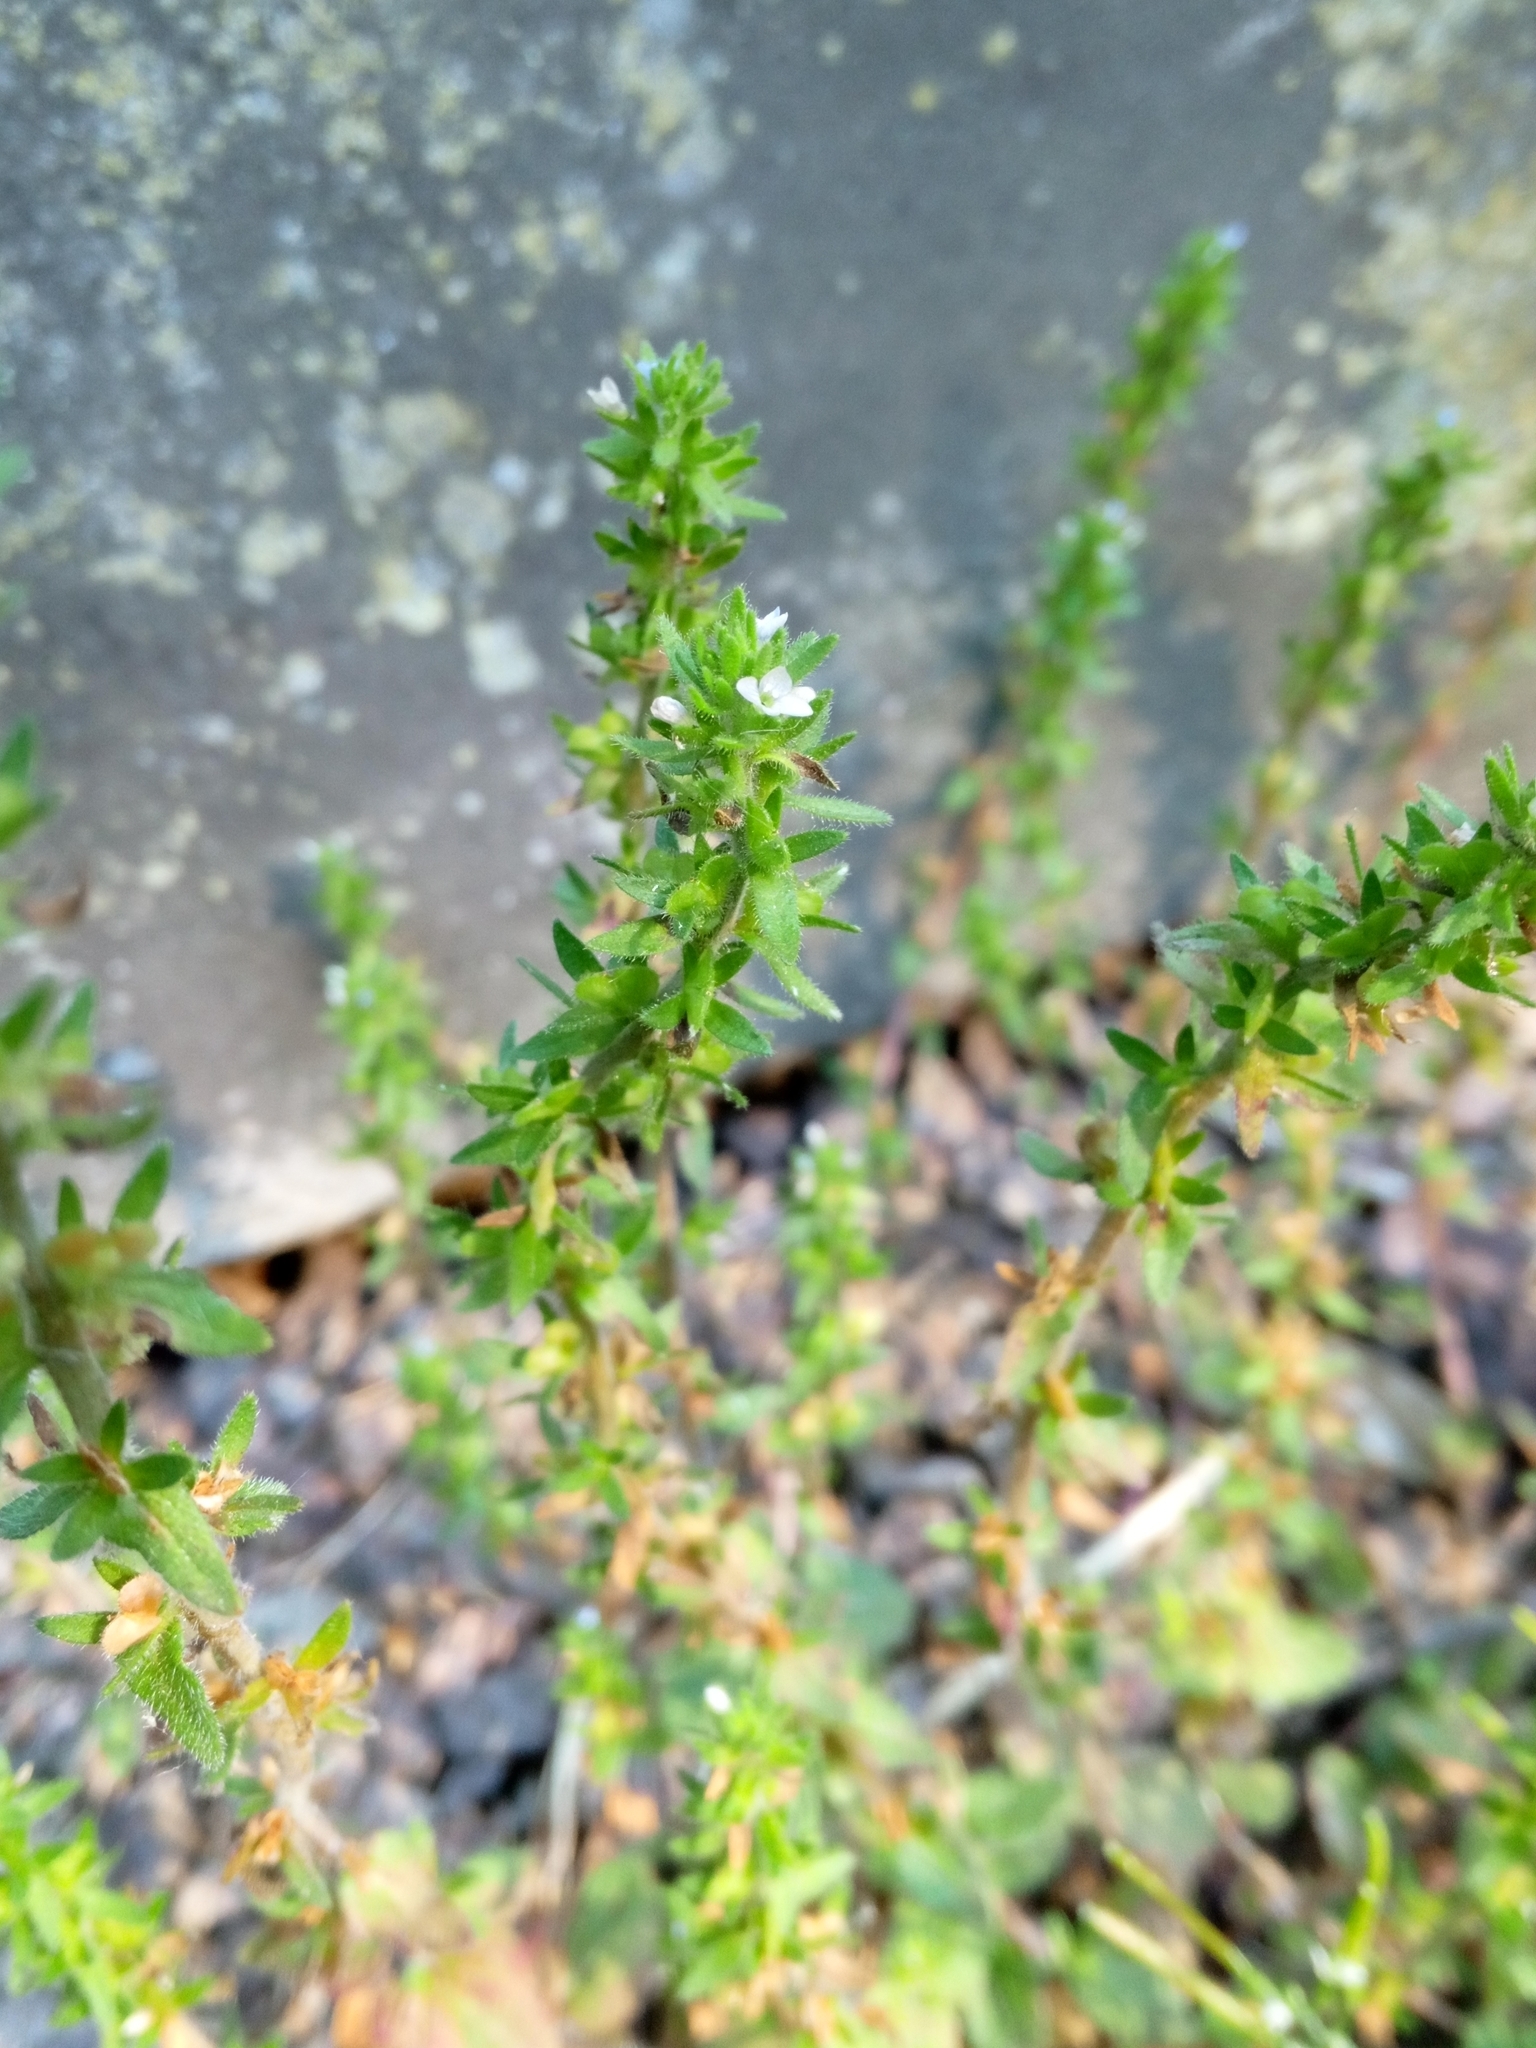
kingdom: Plantae
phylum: Tracheophyta
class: Magnoliopsida
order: Lamiales
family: Plantaginaceae
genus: Veronica
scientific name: Veronica arvensis
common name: Corn speedwell
